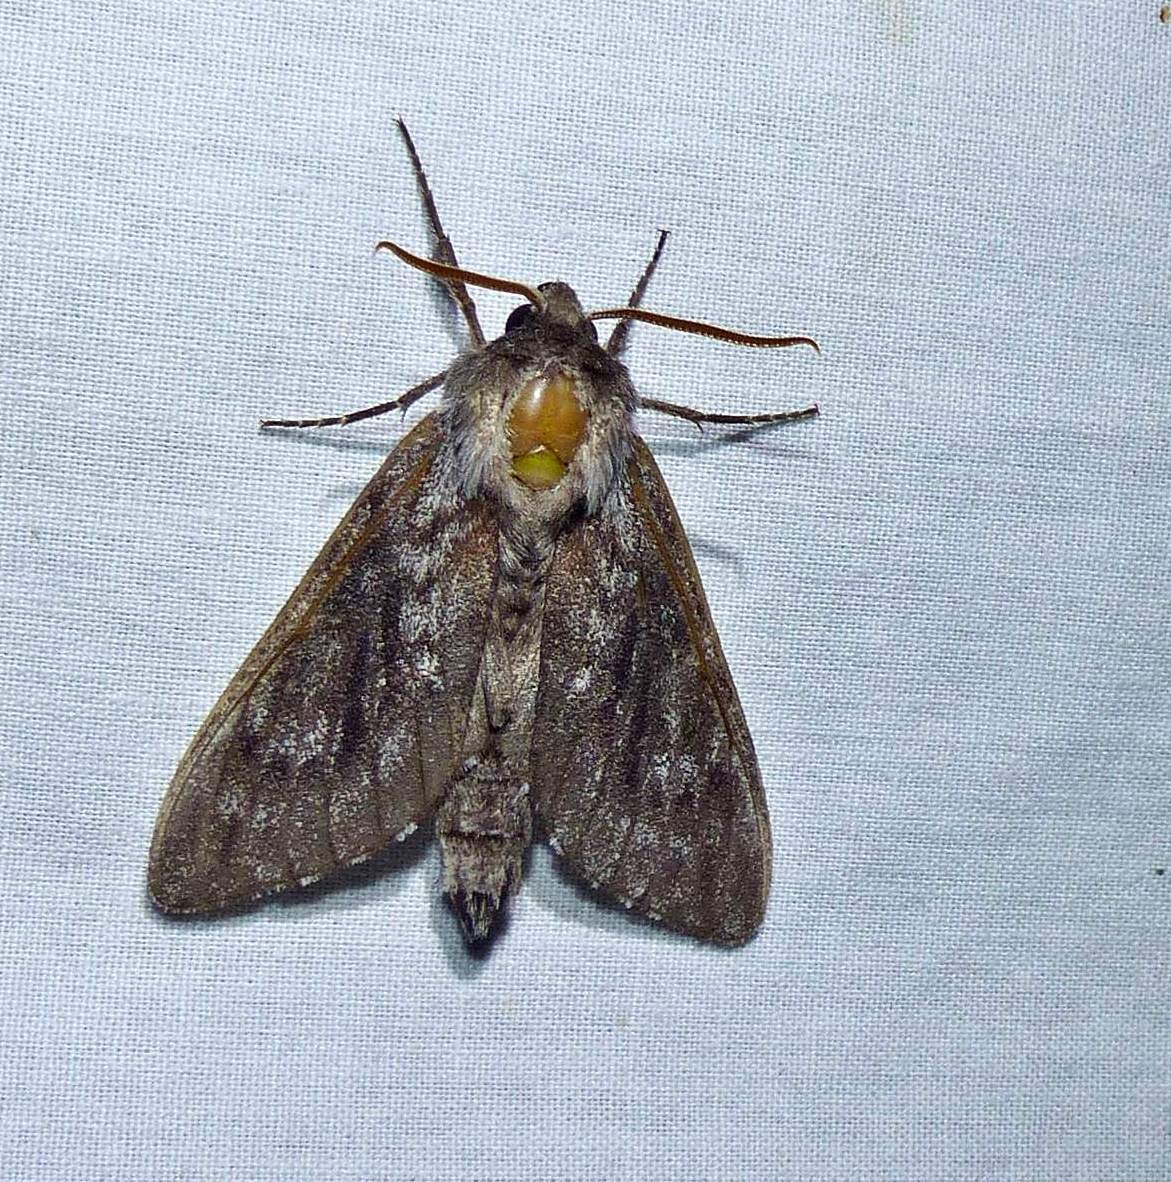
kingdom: Animalia
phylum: Arthropoda
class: Insecta
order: Lepidoptera
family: Sphingidae
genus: Lapara
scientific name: Lapara bombycoides
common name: Northern pine sphinx
